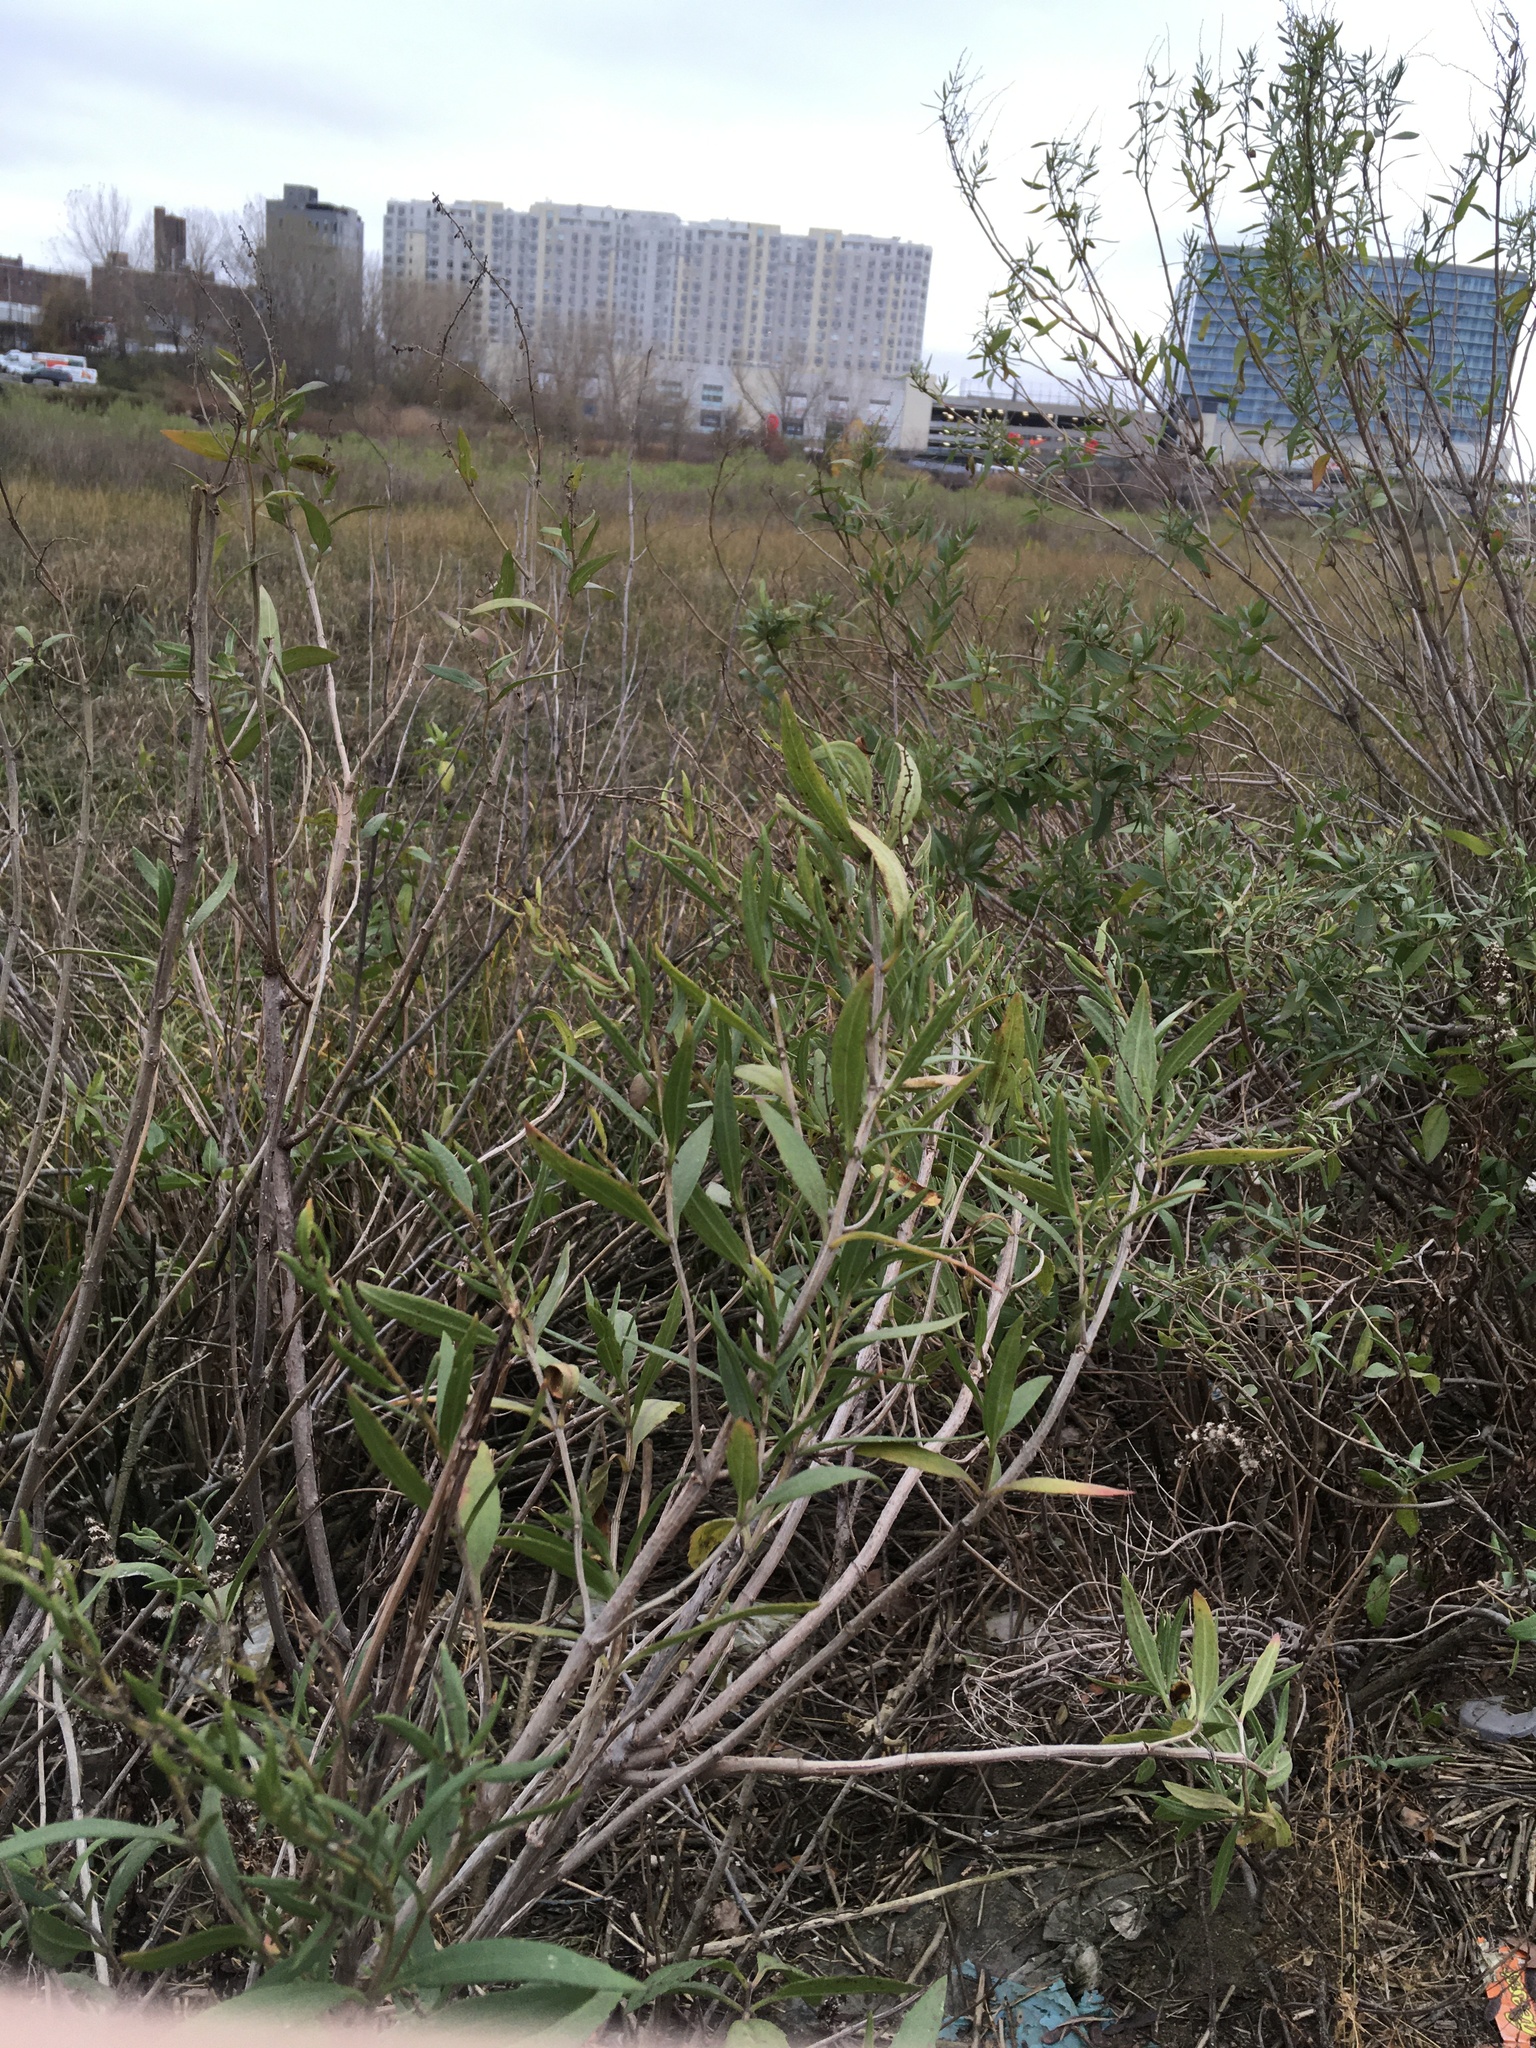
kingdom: Plantae
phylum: Tracheophyta
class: Magnoliopsida
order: Asterales
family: Asteraceae
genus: Iva
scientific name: Iva frutescens
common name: Big-leaved marsh-elder
